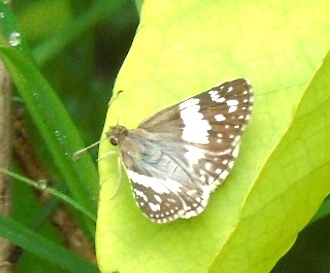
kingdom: Animalia
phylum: Arthropoda
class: Insecta
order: Lepidoptera
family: Hesperiidae
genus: Heliopyrgus
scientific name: Heliopyrgus domicella
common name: Erichson's white skipper
